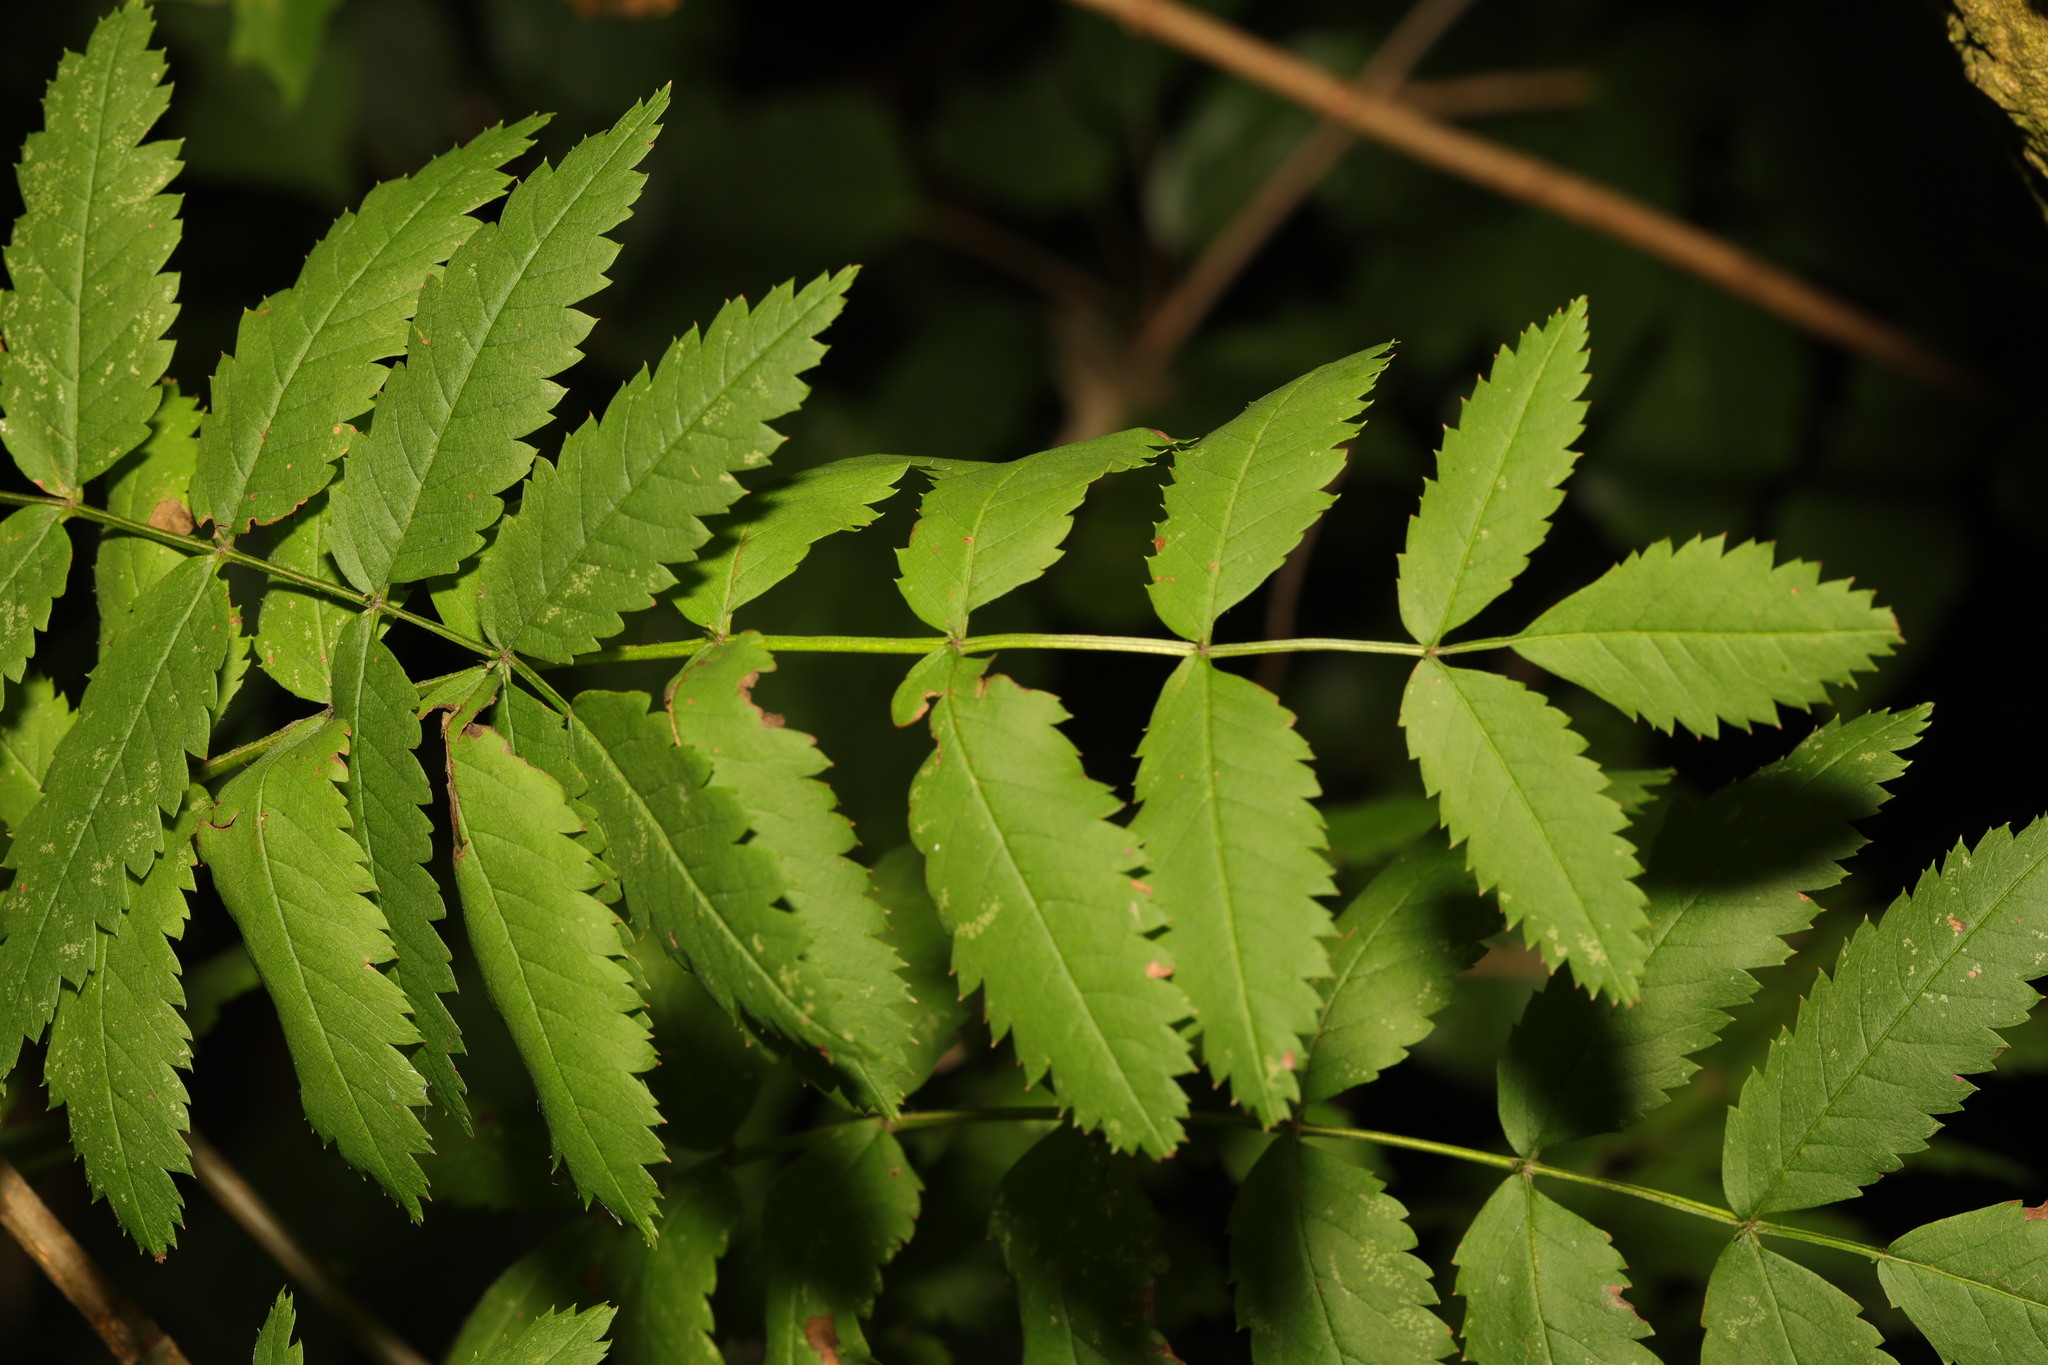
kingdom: Plantae
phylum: Tracheophyta
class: Magnoliopsida
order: Rosales
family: Rosaceae
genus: Sorbus
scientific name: Sorbus aucuparia
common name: Rowan
